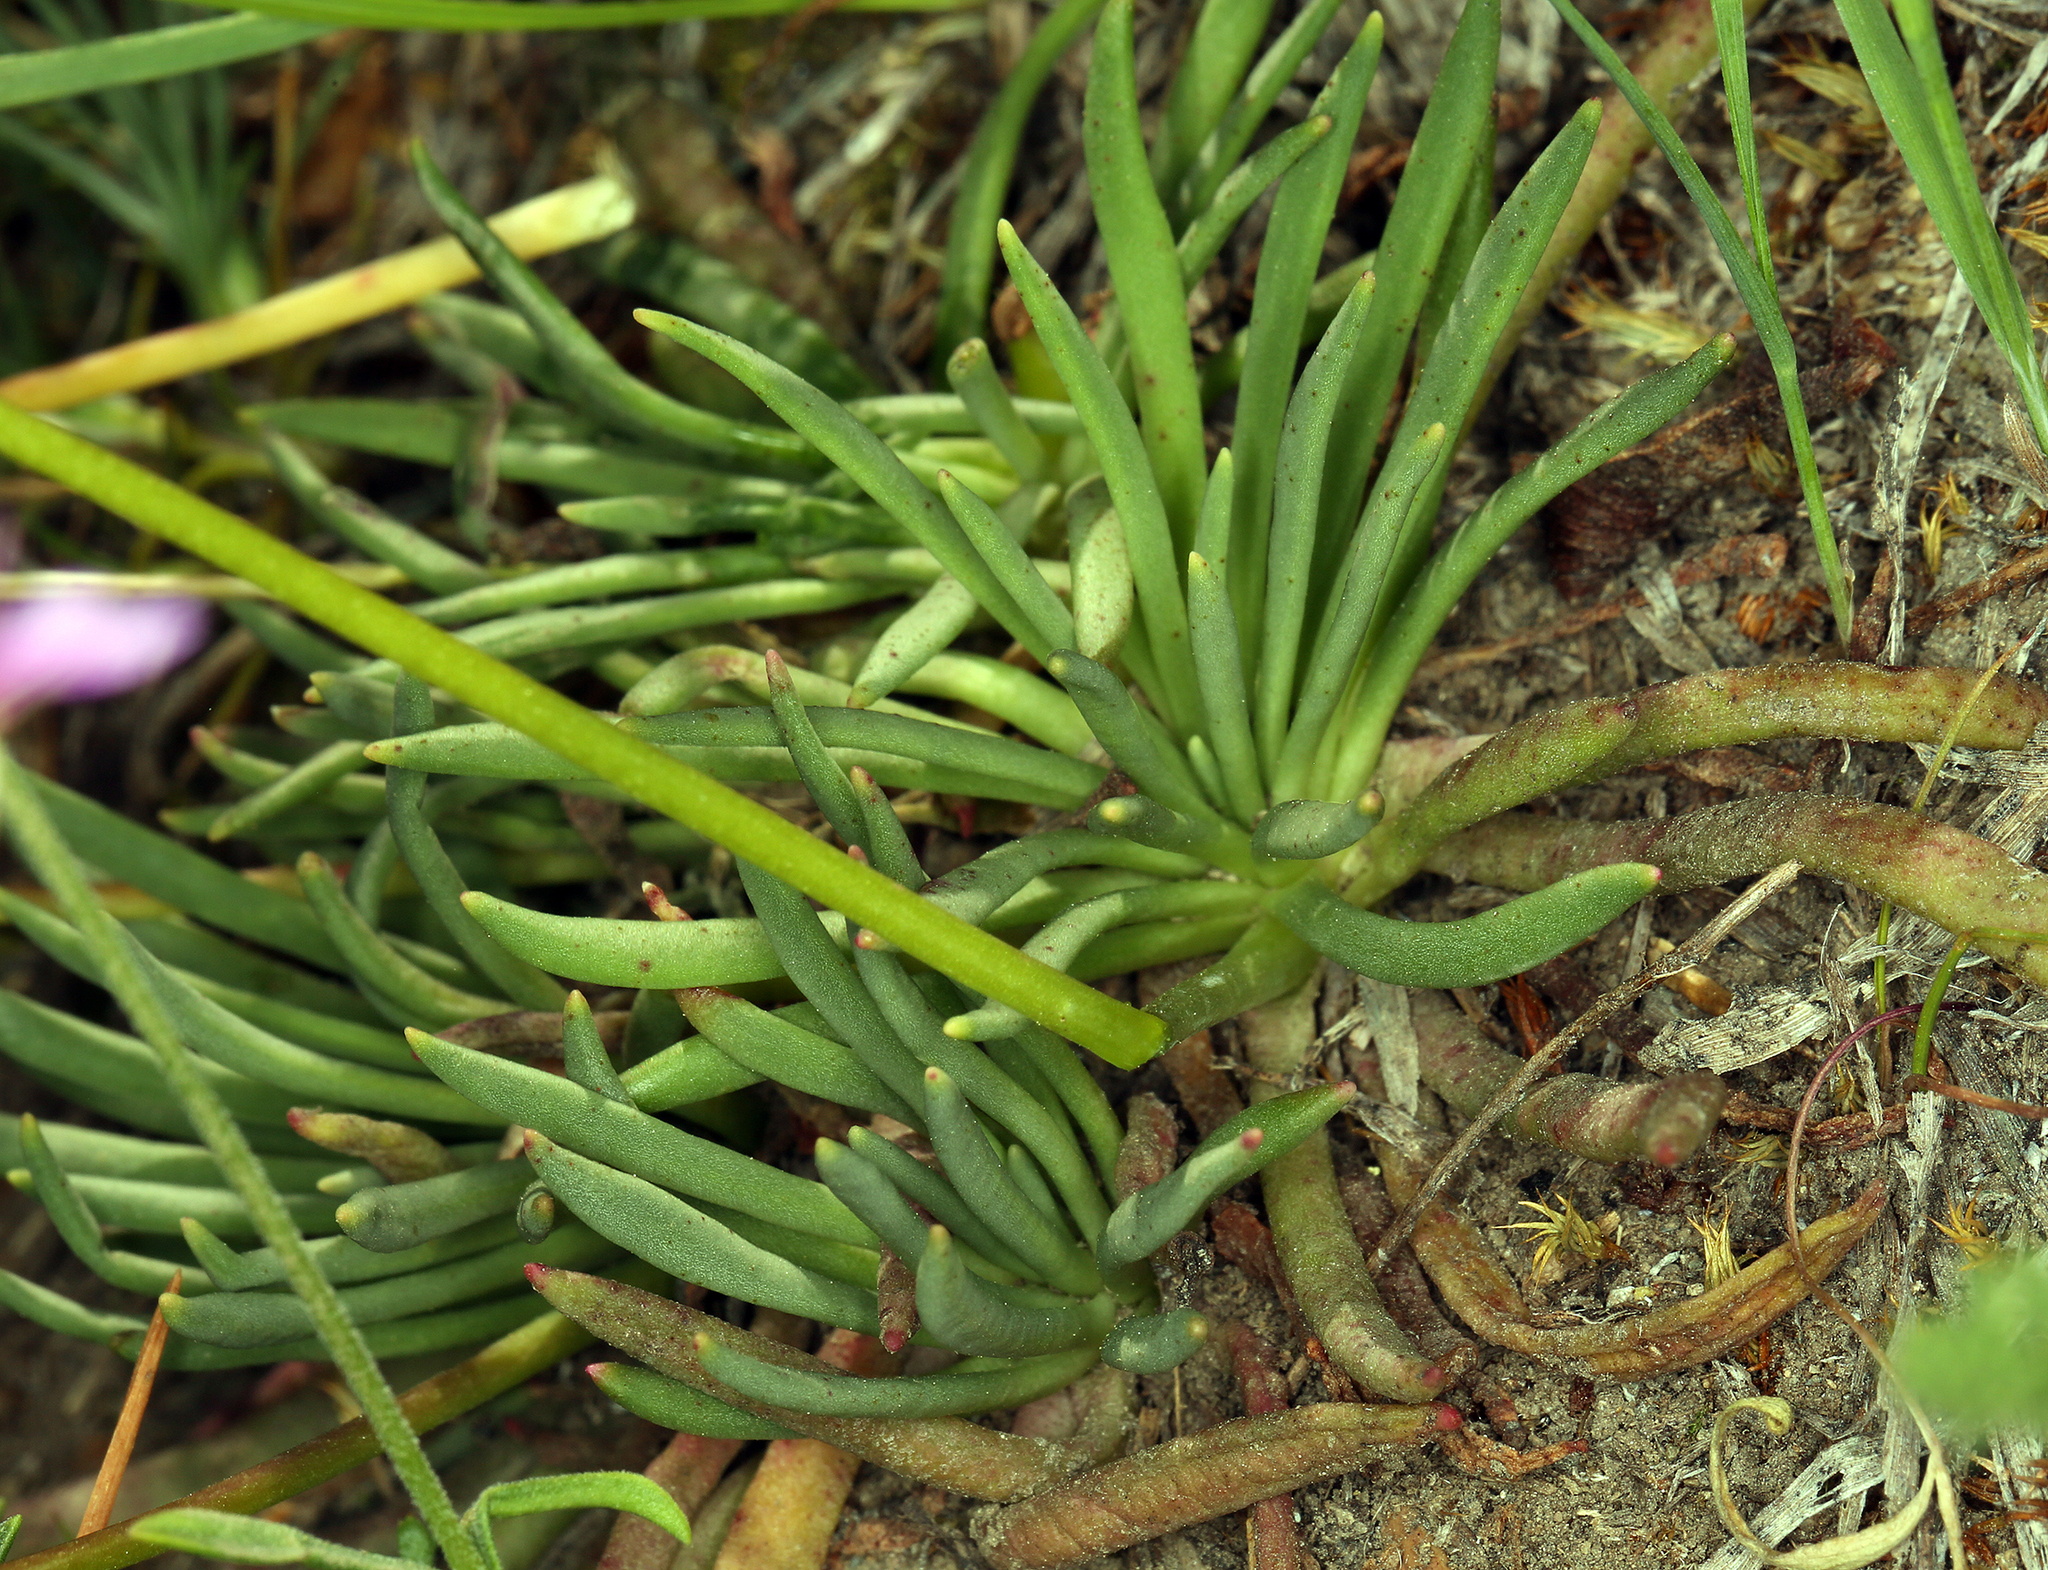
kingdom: Plantae
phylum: Tracheophyta
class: Magnoliopsida
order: Caryophyllales
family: Montiaceae
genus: Lewisia
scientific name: Lewisia leeana
